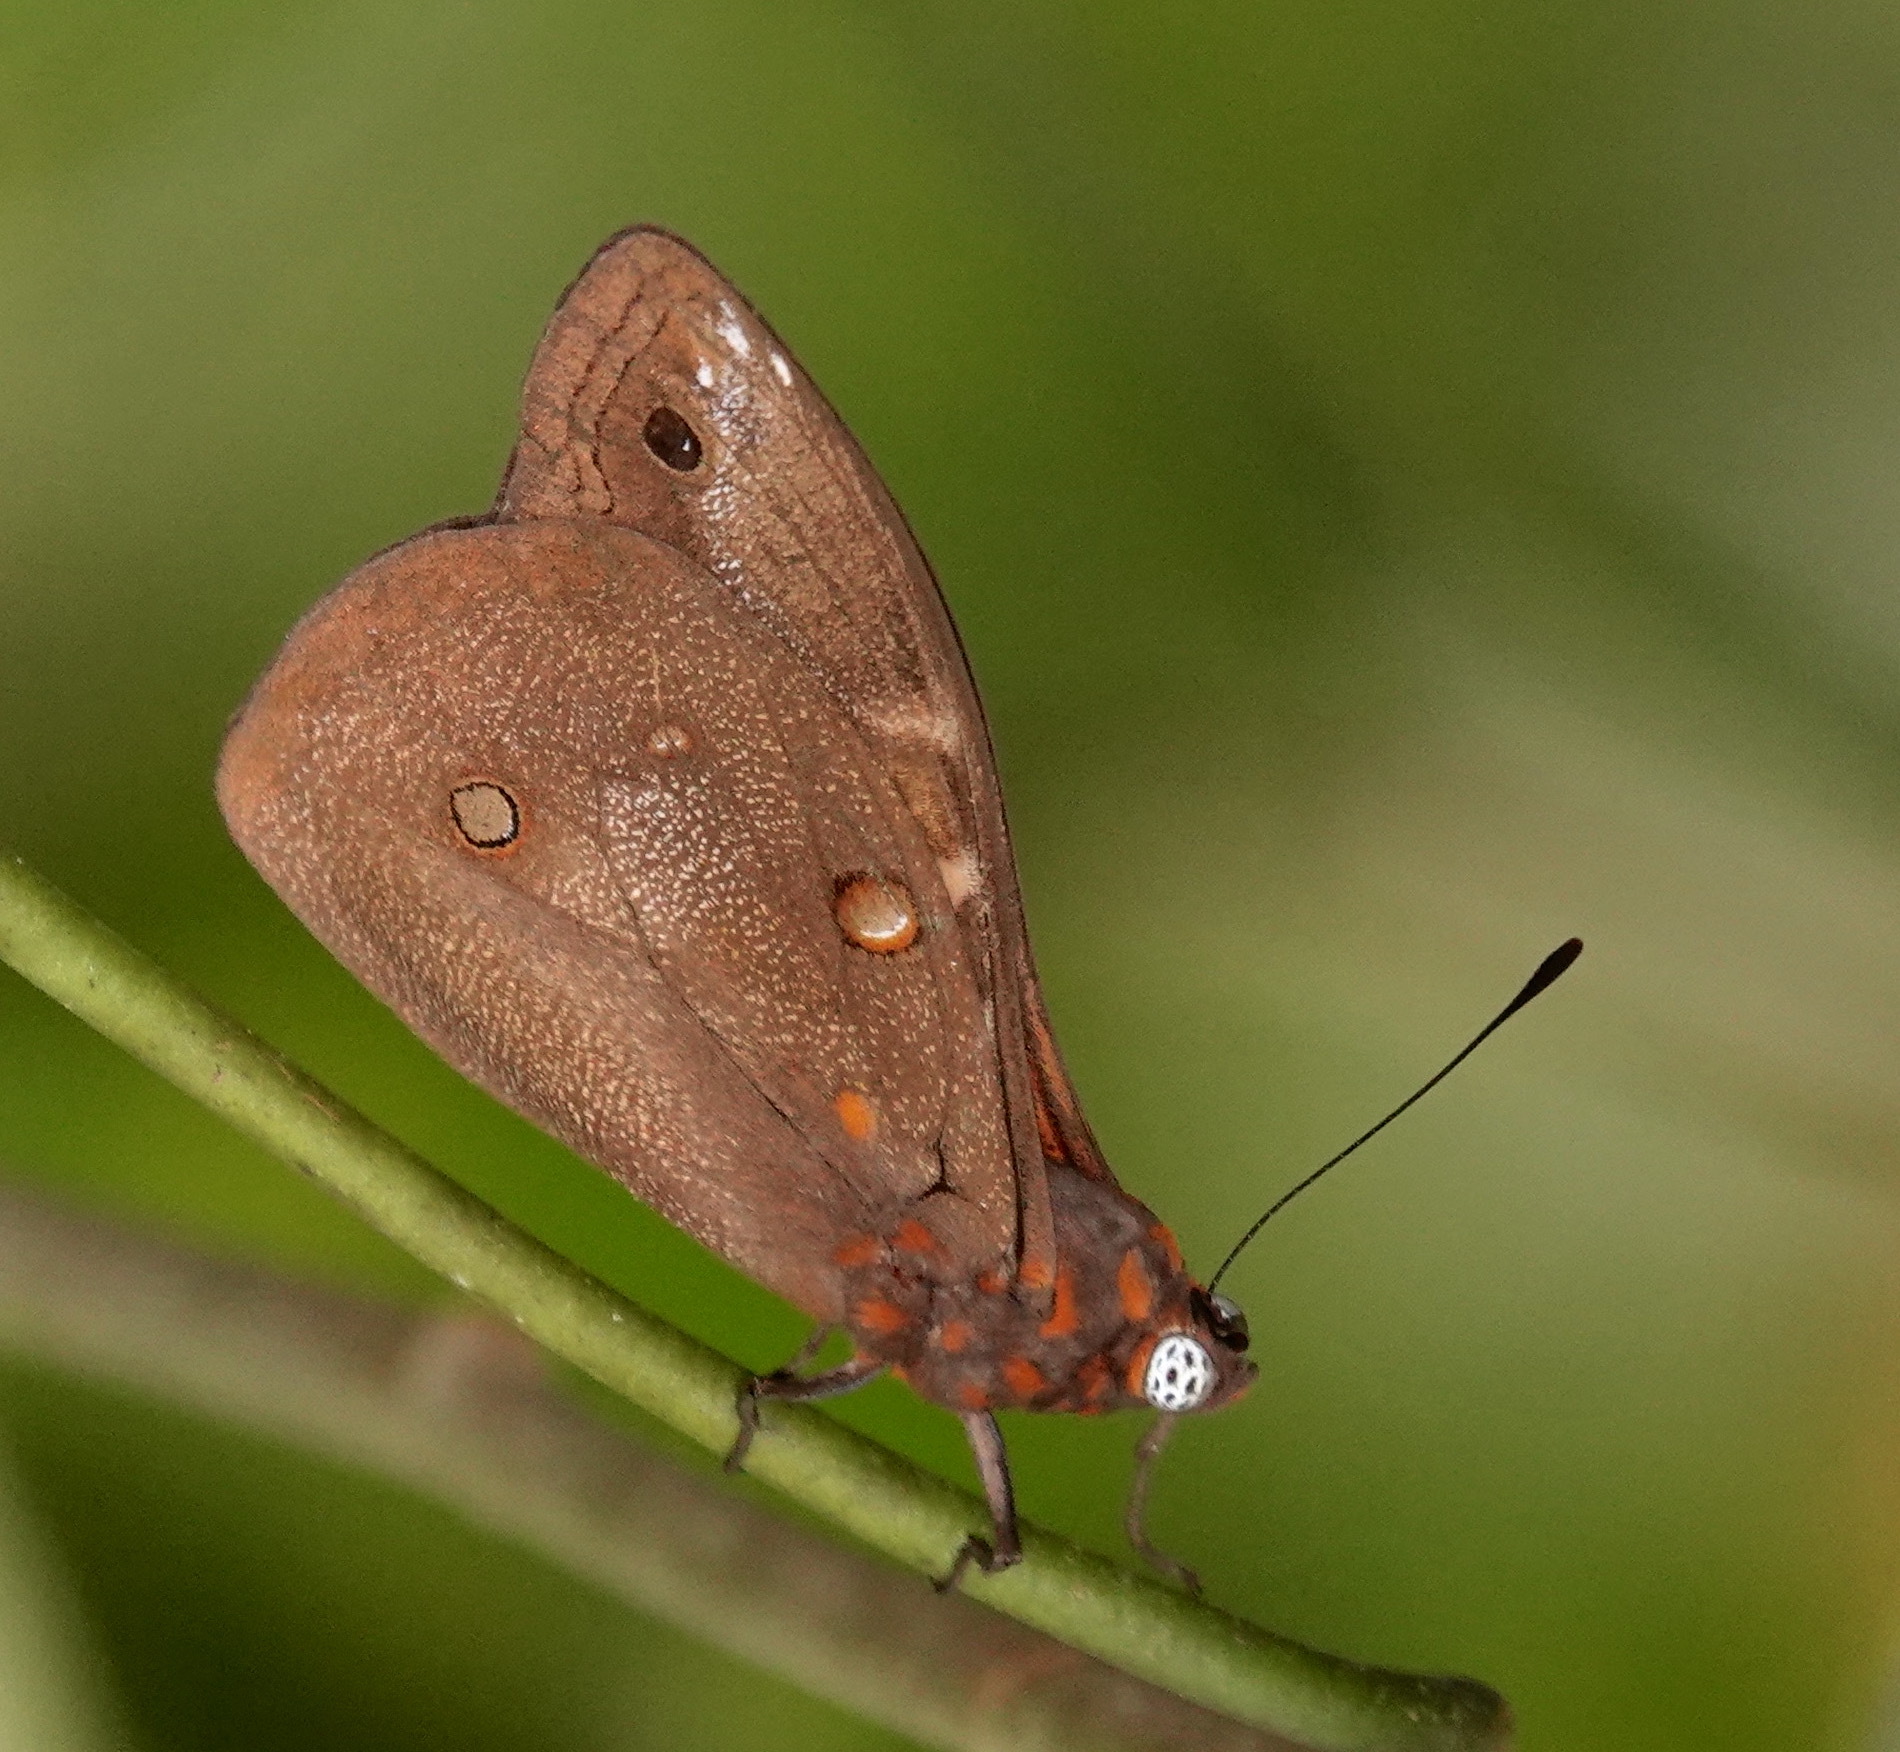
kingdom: Animalia
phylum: Arthropoda
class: Insecta
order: Lepidoptera
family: Nymphalidae
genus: Brassolis
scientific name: Brassolis sophorae
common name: Coconut caterpillar
